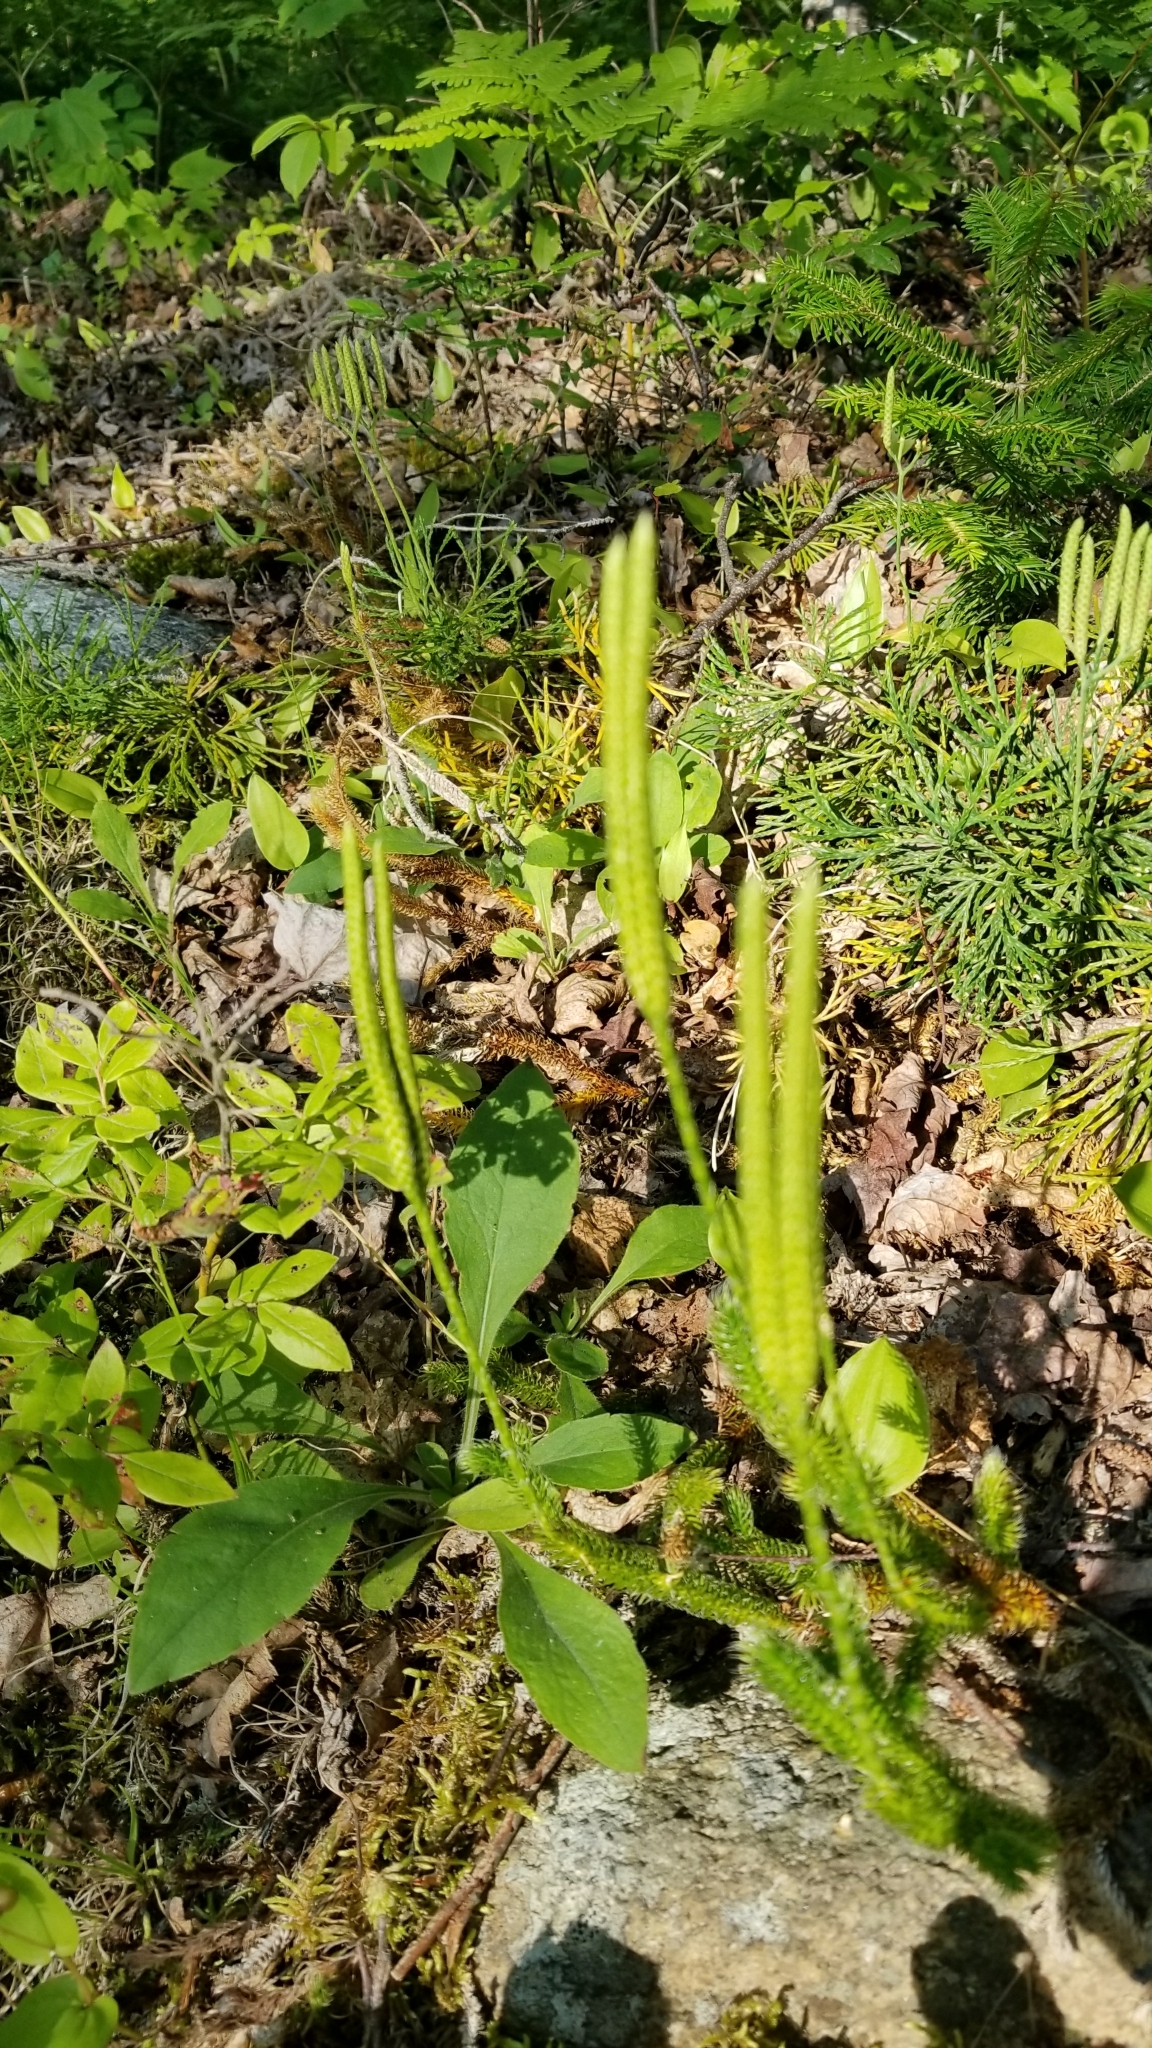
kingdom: Plantae
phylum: Tracheophyta
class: Lycopodiopsida
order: Lycopodiales
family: Lycopodiaceae
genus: Lycopodium
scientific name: Lycopodium clavatum
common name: Stag's-horn clubmoss
